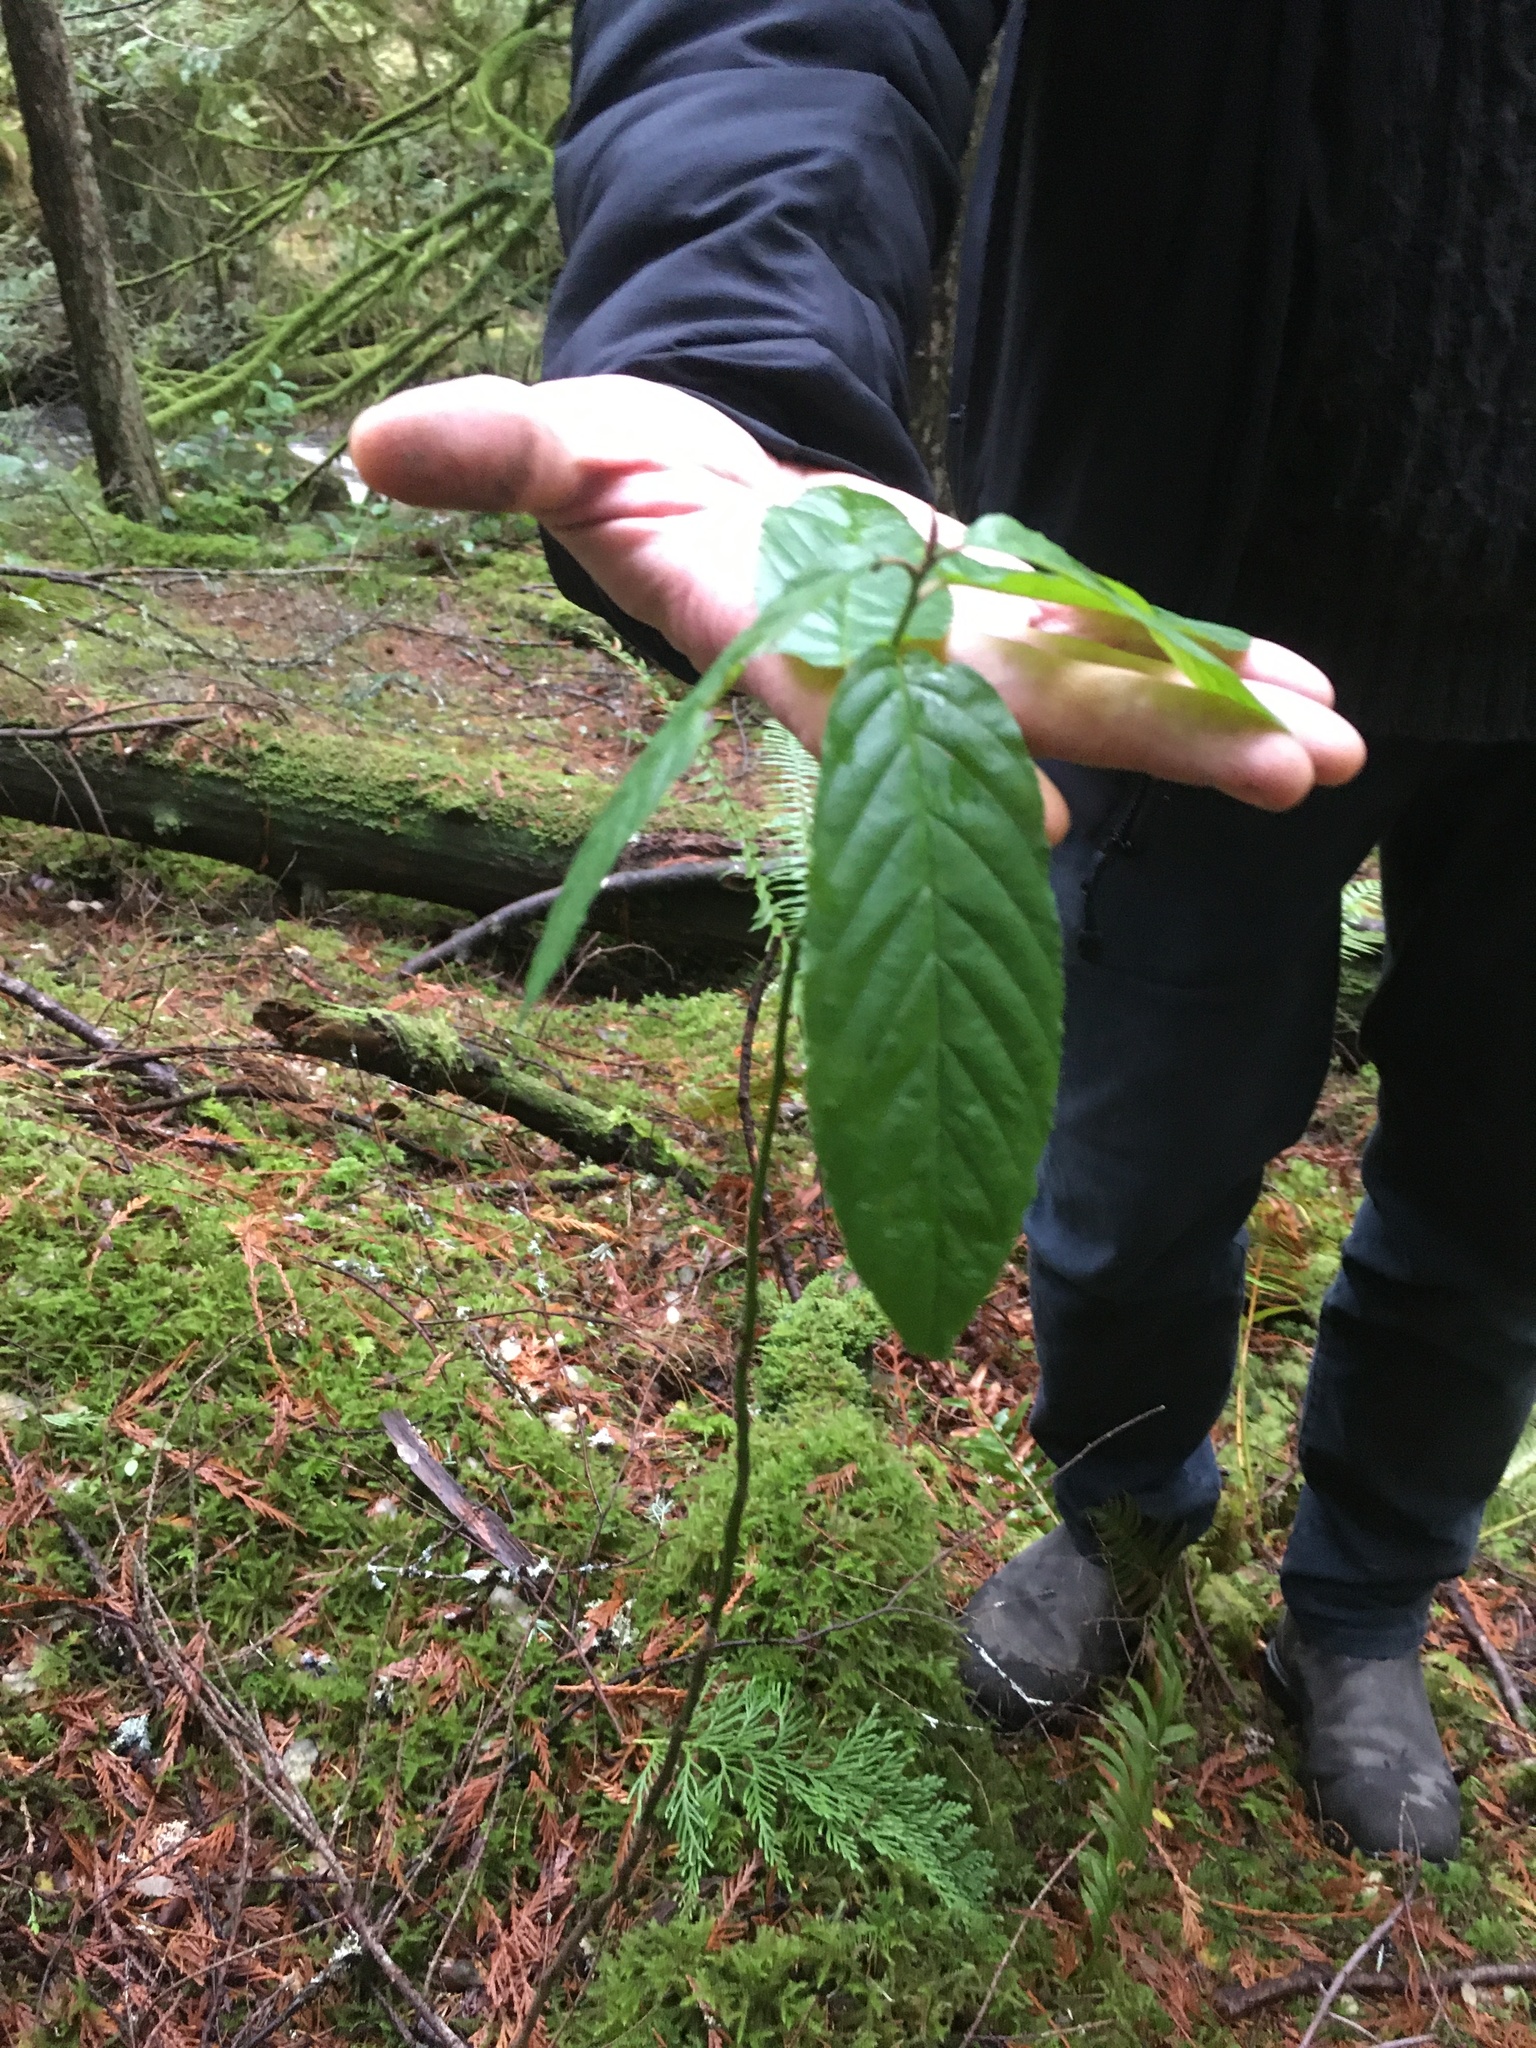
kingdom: Plantae
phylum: Tracheophyta
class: Magnoliopsida
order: Rosales
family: Rhamnaceae
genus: Frangula
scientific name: Frangula purshiana
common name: Cascara buckthorn
